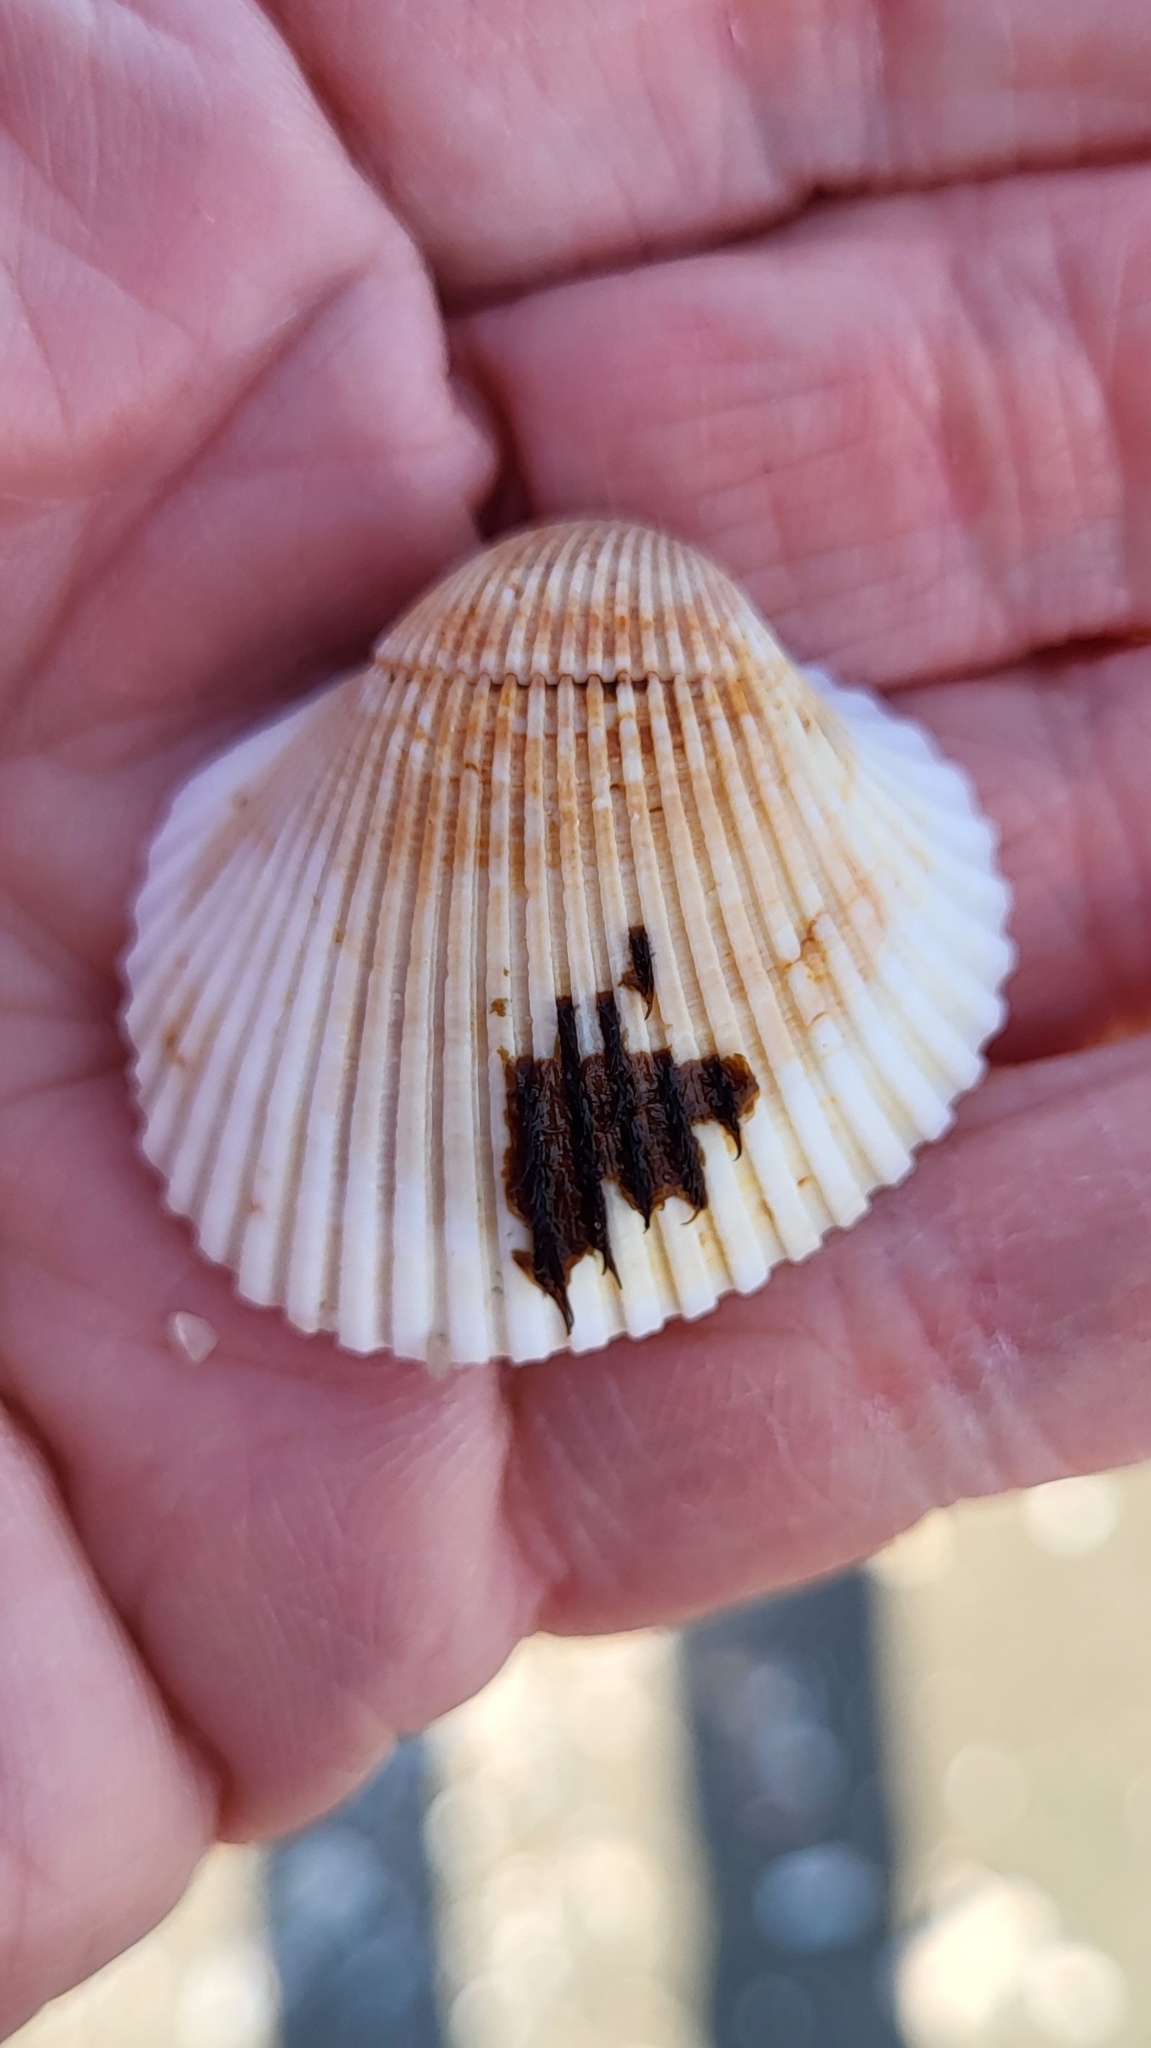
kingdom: Animalia
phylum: Mollusca
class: Bivalvia
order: Arcida
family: Arcidae
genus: Lunarca
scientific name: Lunarca ovalis
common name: Blood ark
